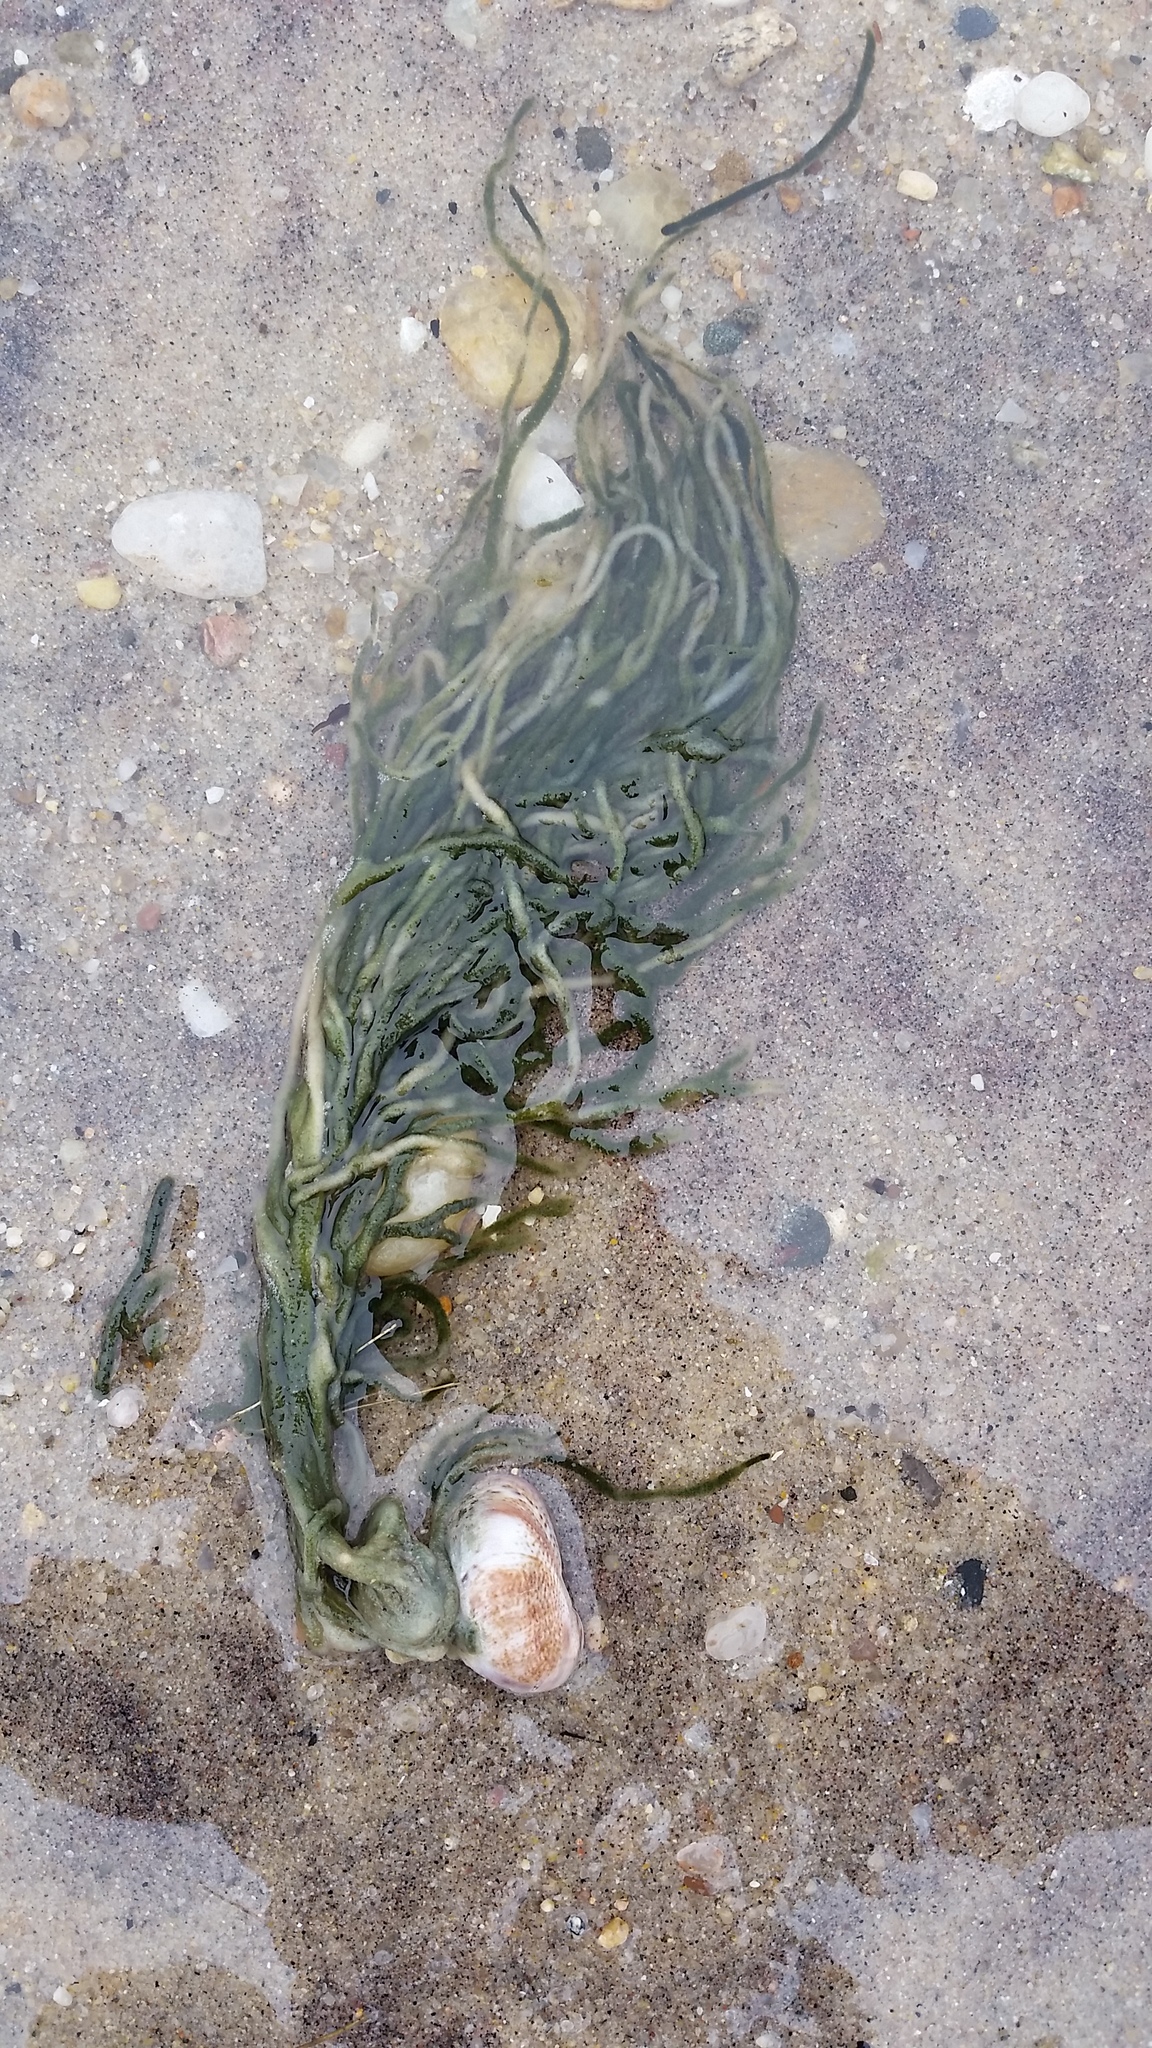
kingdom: Plantae
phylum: Chlorophyta
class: Ulvophyceae
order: Bryopsidales
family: Codiaceae
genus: Codium
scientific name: Codium fragile
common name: Dead man's fingers
